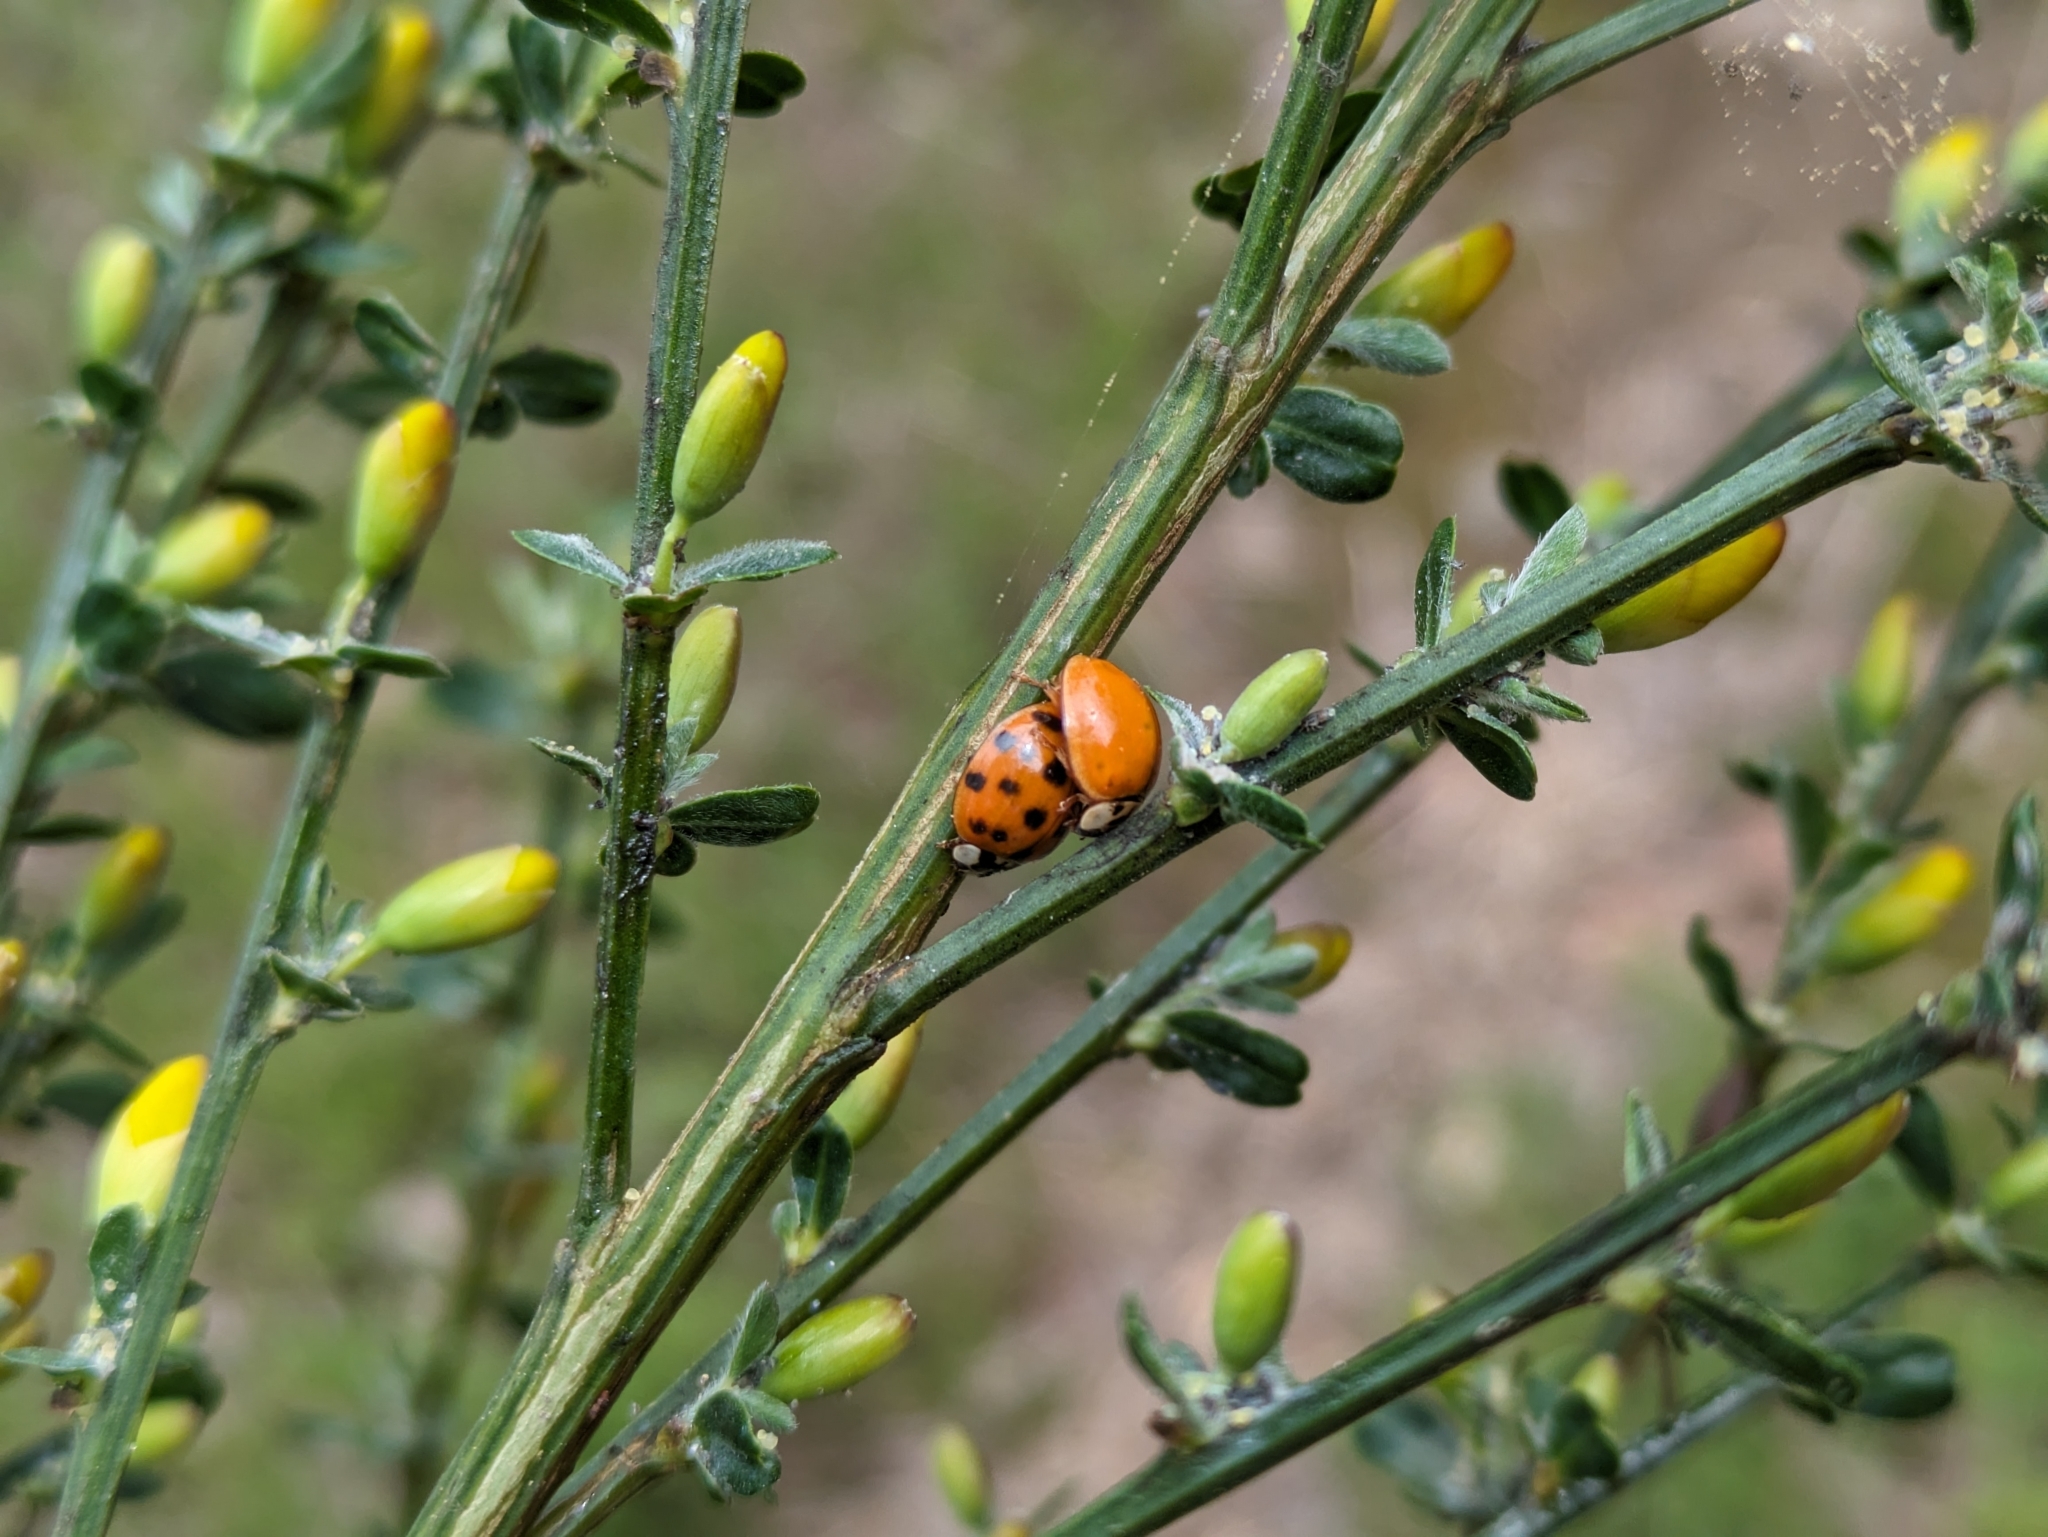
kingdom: Animalia
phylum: Arthropoda
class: Insecta
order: Coleoptera
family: Coccinellidae
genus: Harmonia
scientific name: Harmonia axyridis
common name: Harlequin ladybird
